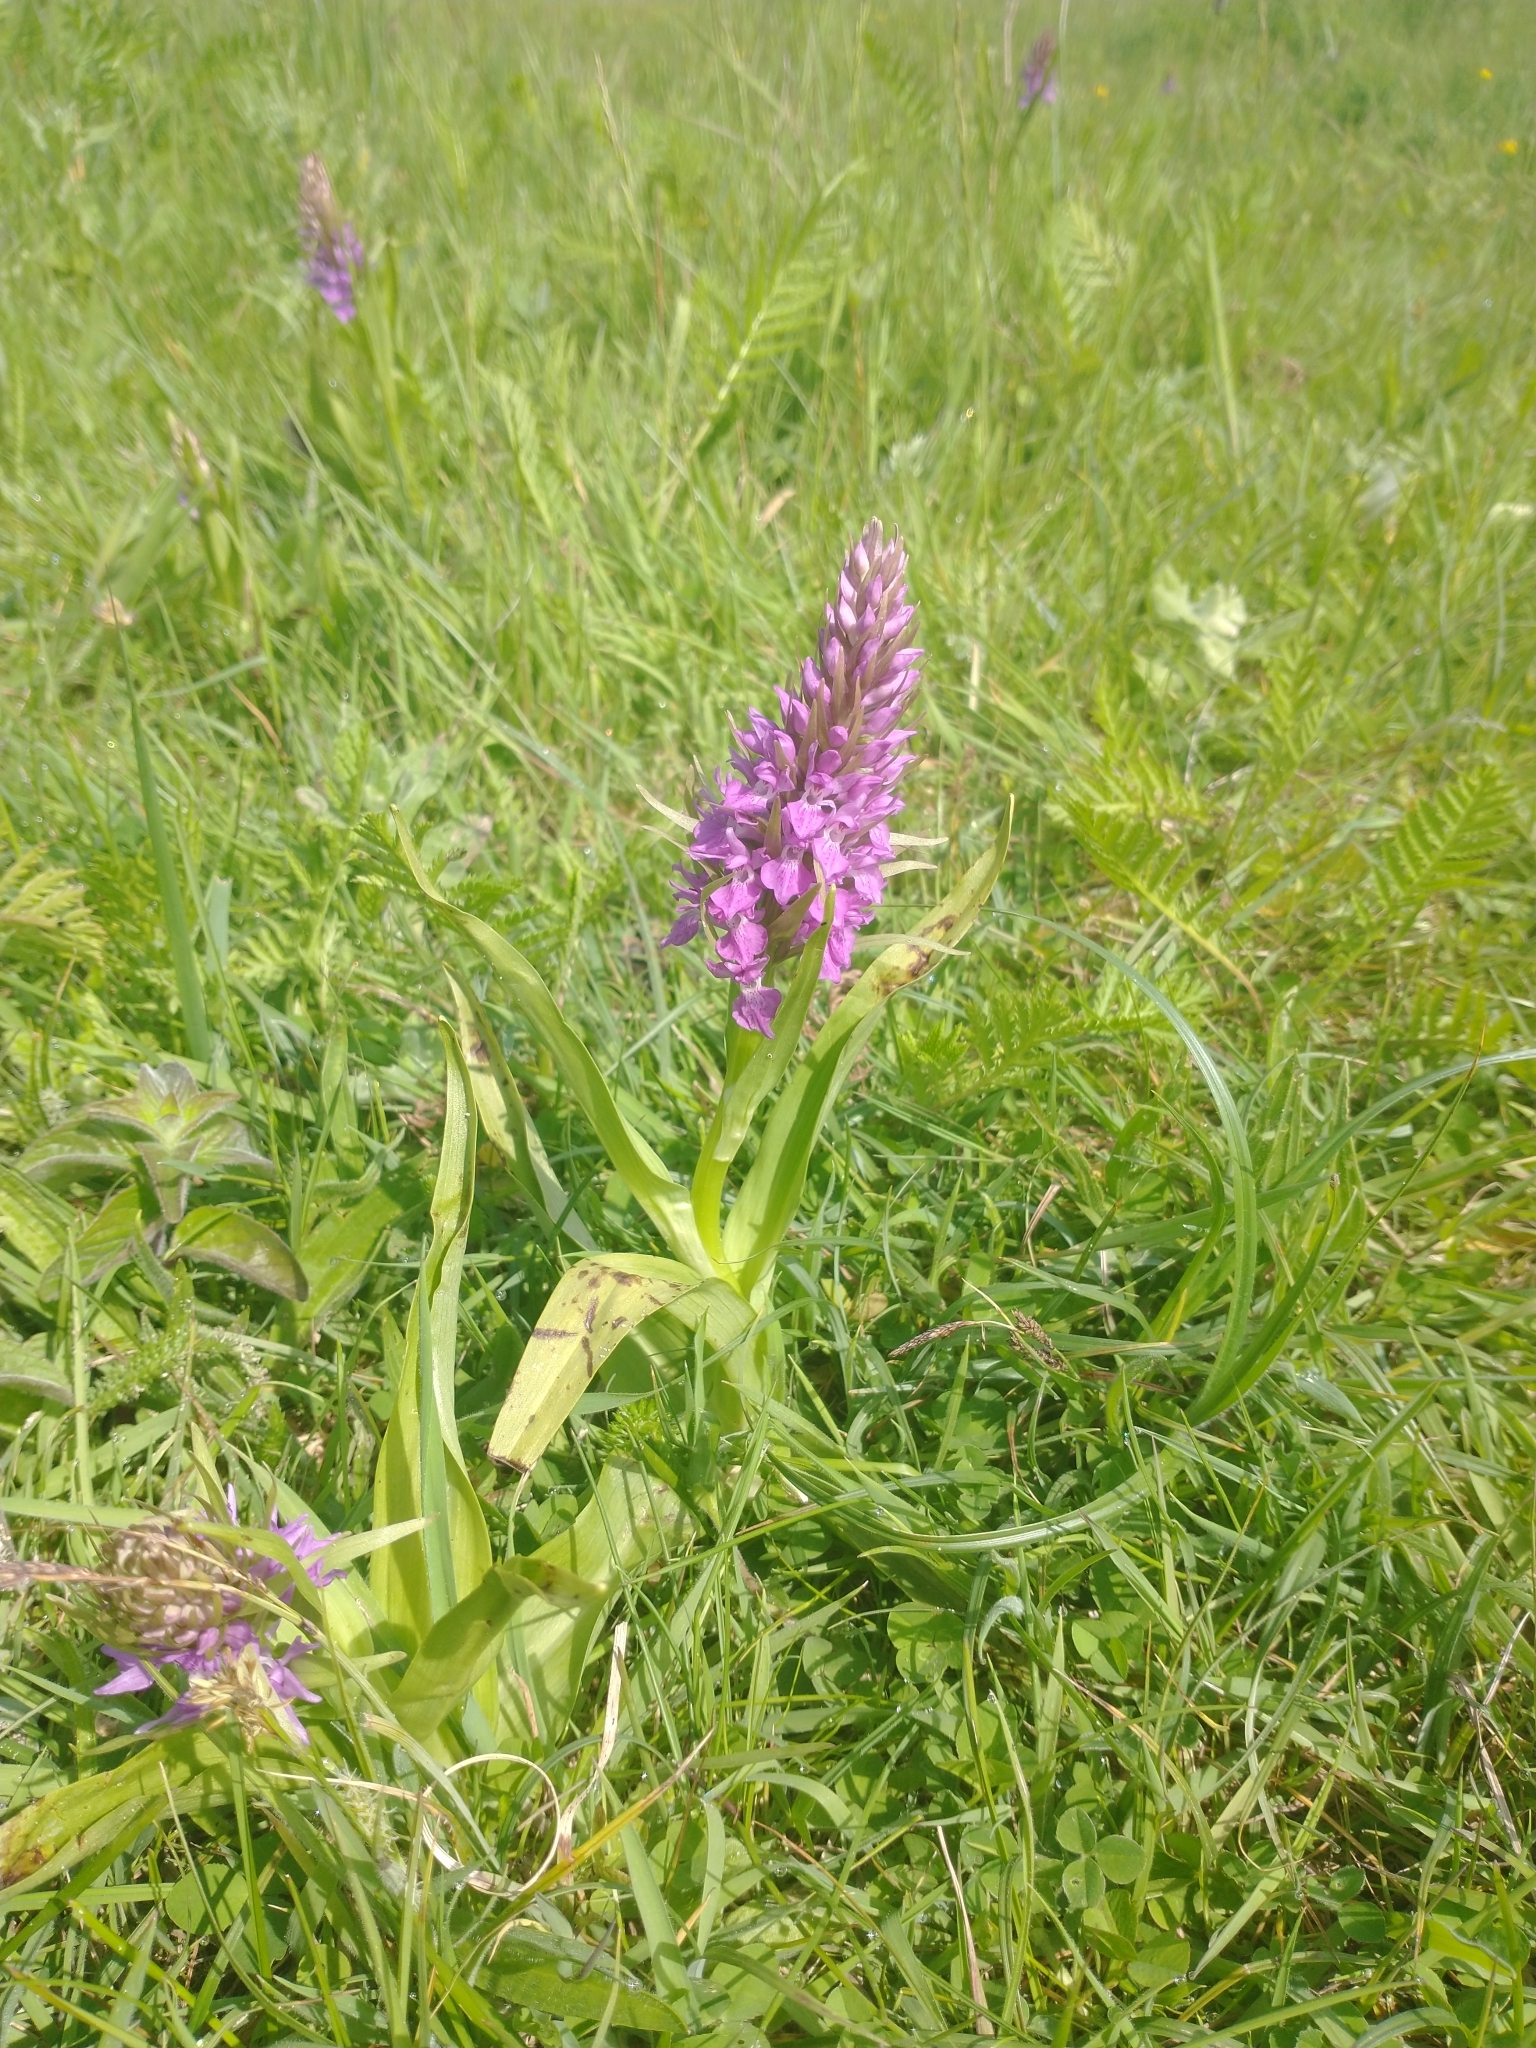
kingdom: Plantae
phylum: Tracheophyta
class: Liliopsida
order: Asparagales
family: Orchidaceae
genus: Dactylorhiza
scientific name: Dactylorhiza majalis
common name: Marsh orchid
